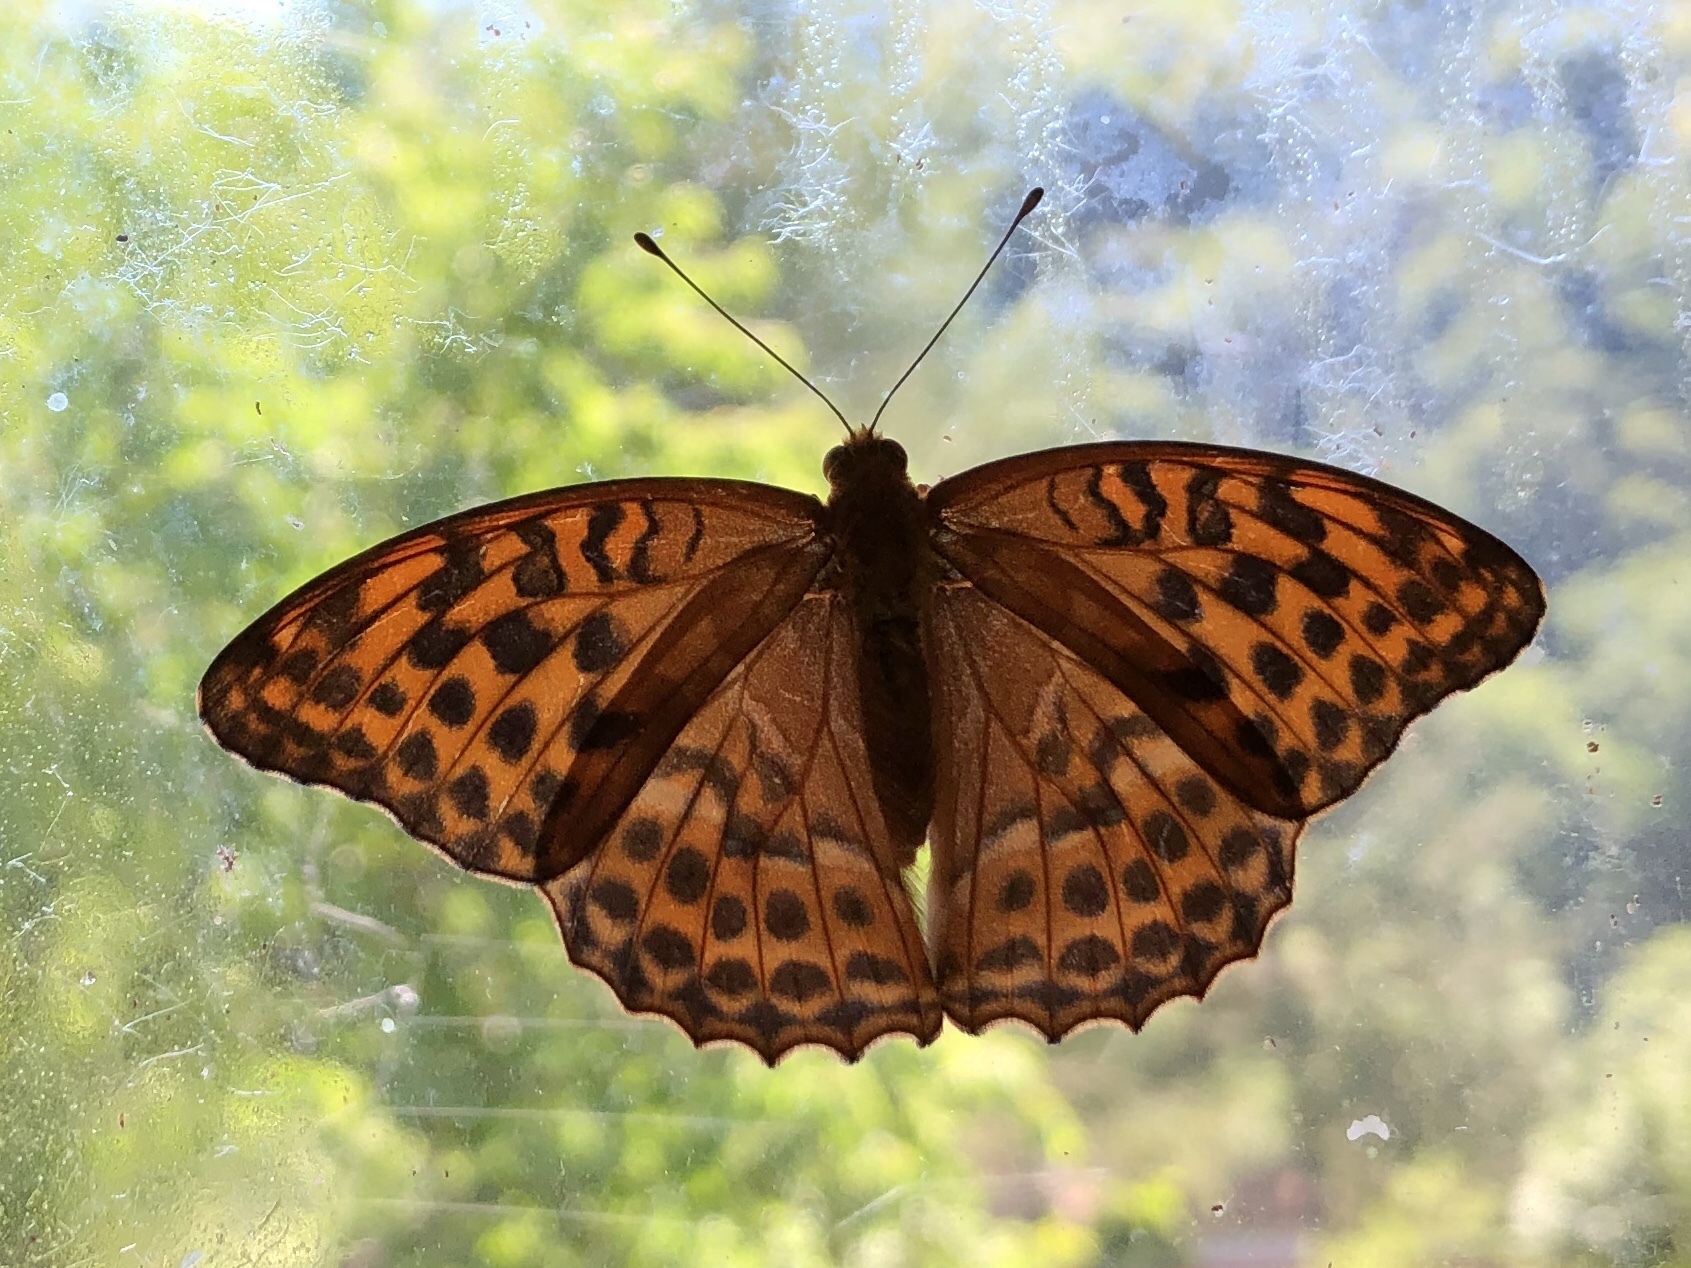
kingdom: Animalia
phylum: Arthropoda
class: Insecta
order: Lepidoptera
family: Nymphalidae
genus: Argynnis
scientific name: Argynnis paphia
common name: Silver-washed fritillary
